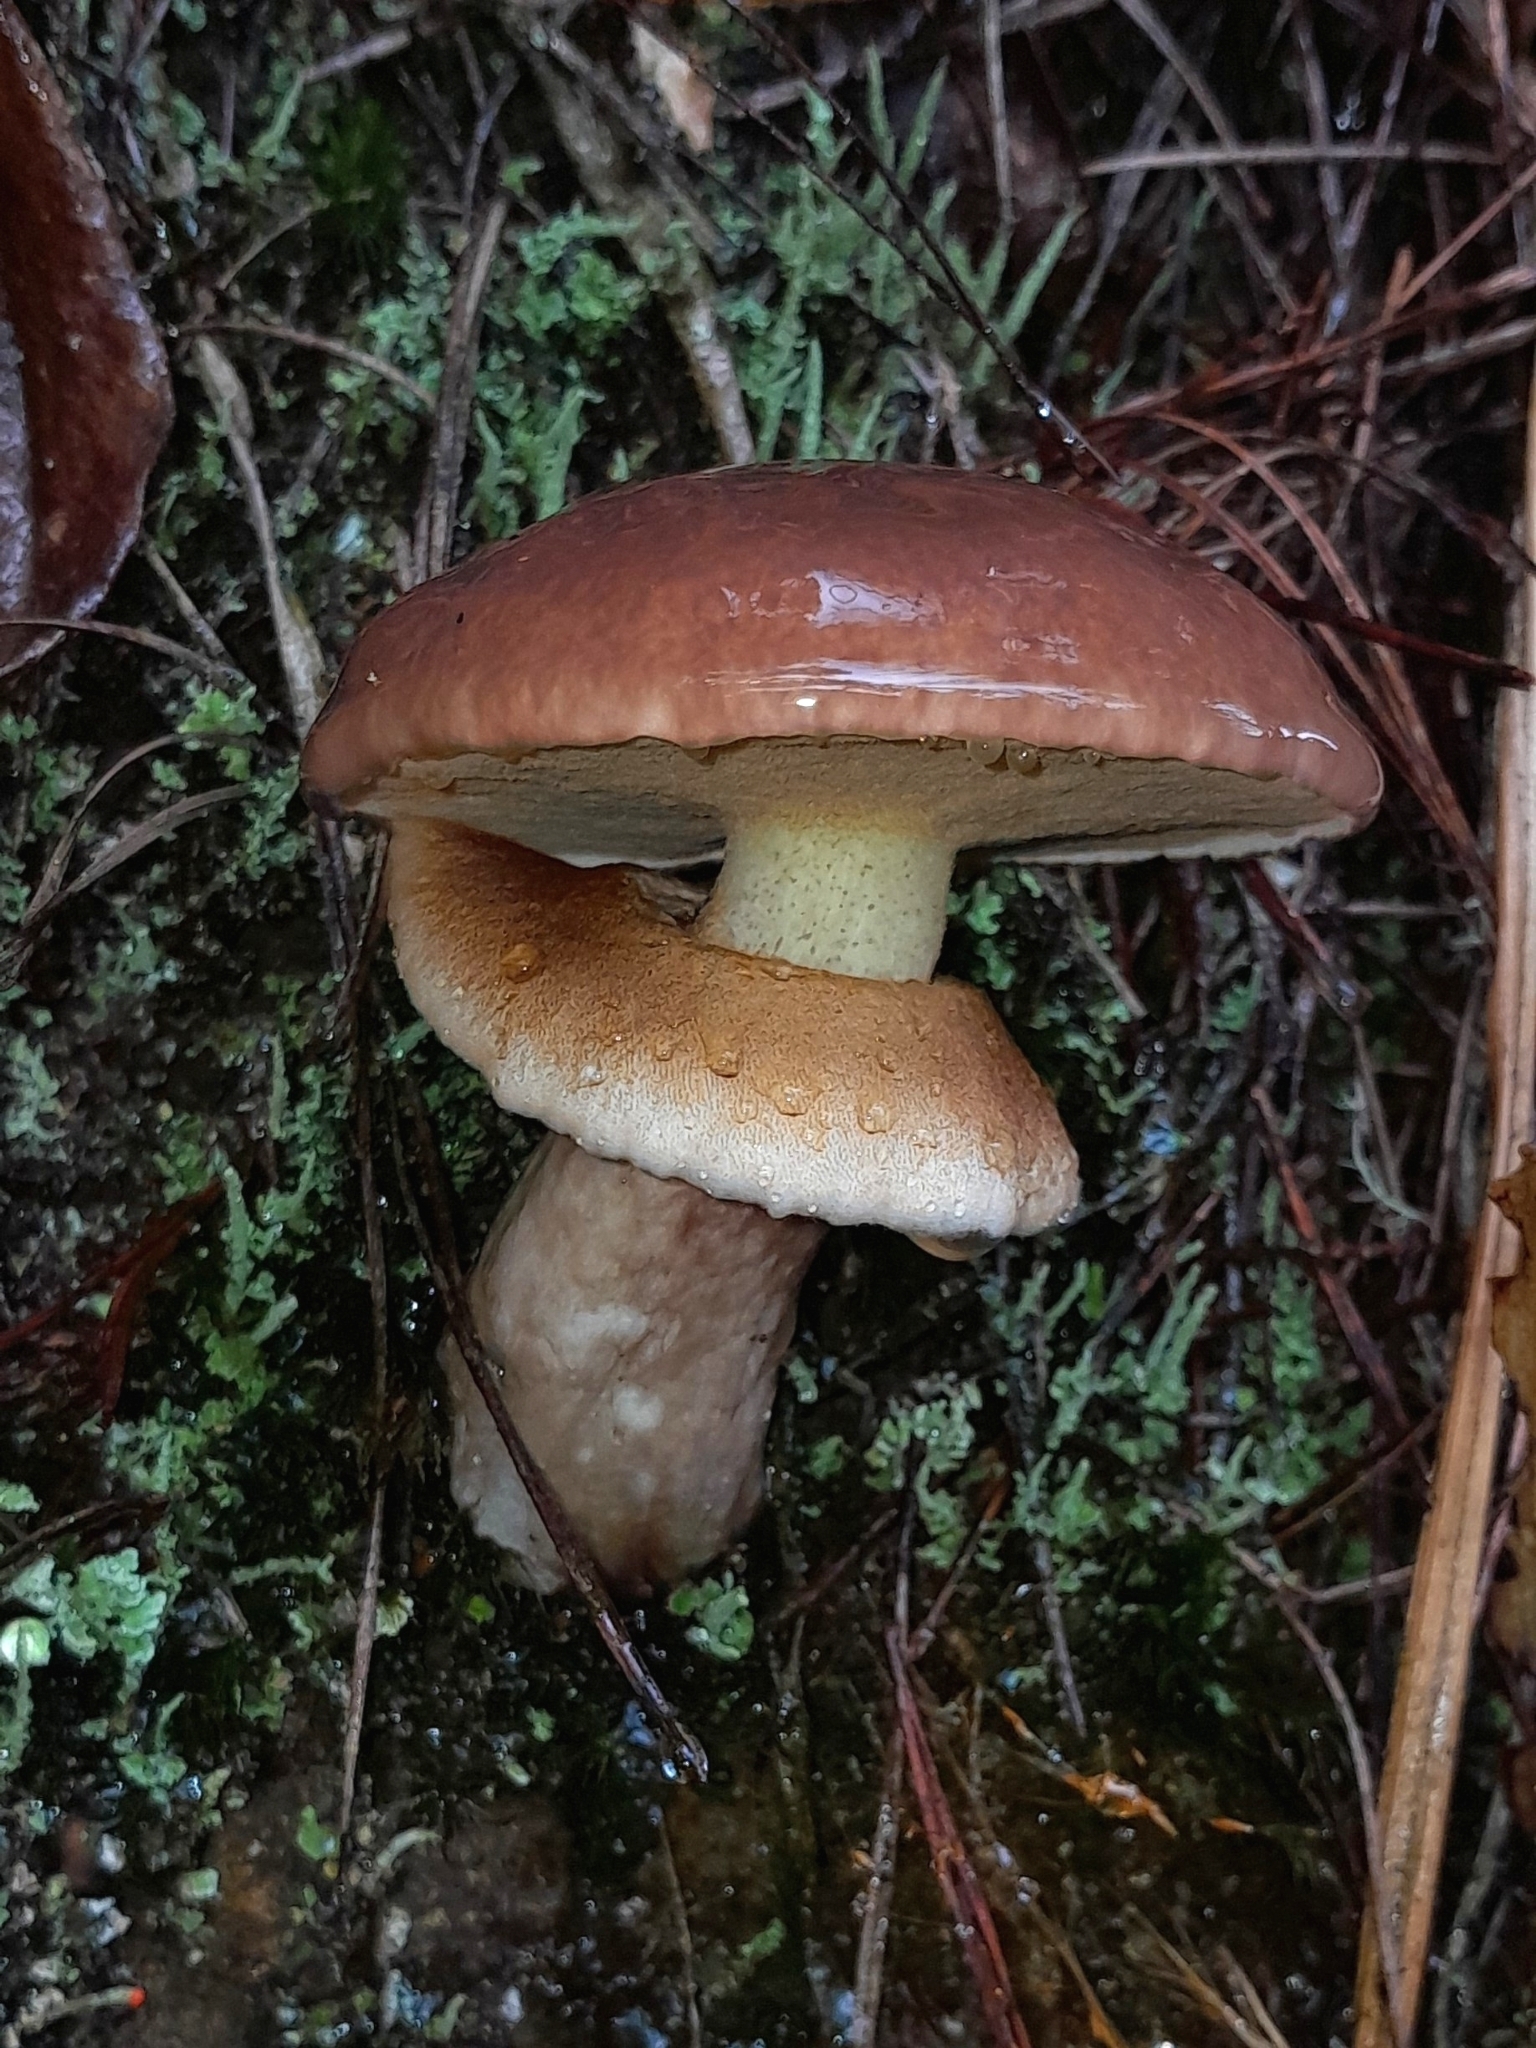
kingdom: Fungi
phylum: Basidiomycota
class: Agaricomycetes
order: Boletales
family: Suillaceae
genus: Suillus
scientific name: Suillus luteus
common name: Slippery jack
